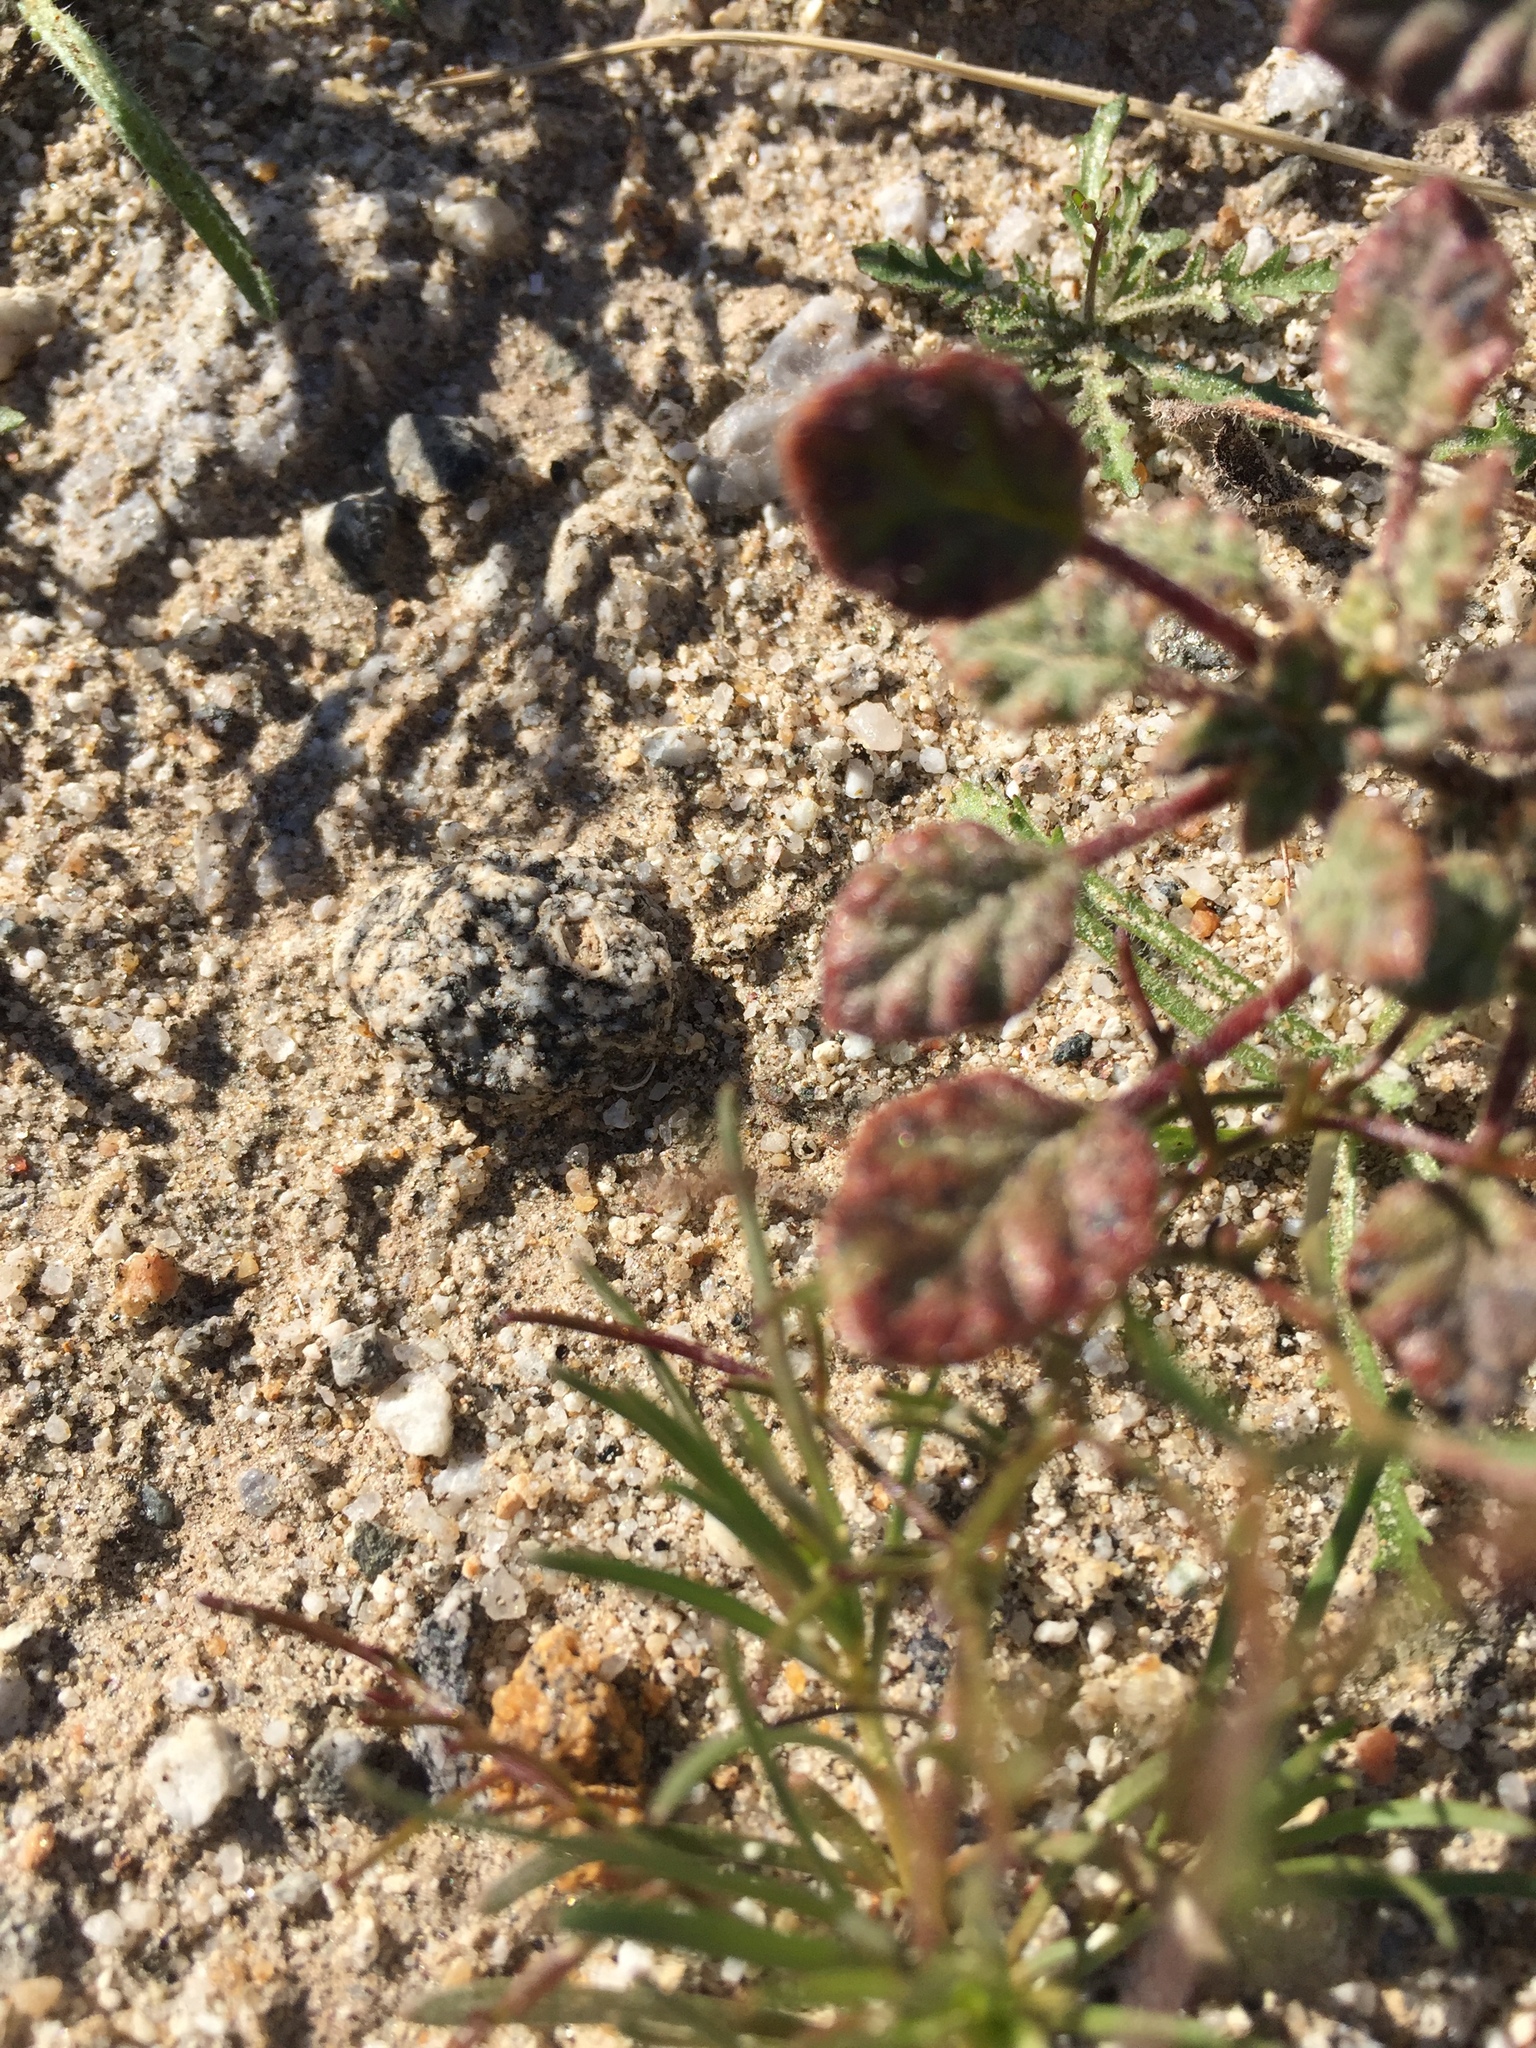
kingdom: Plantae
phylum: Tracheophyta
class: Magnoliopsida
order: Boraginales
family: Ehretiaceae
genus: Tiquilia
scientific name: Tiquilia palmeri
